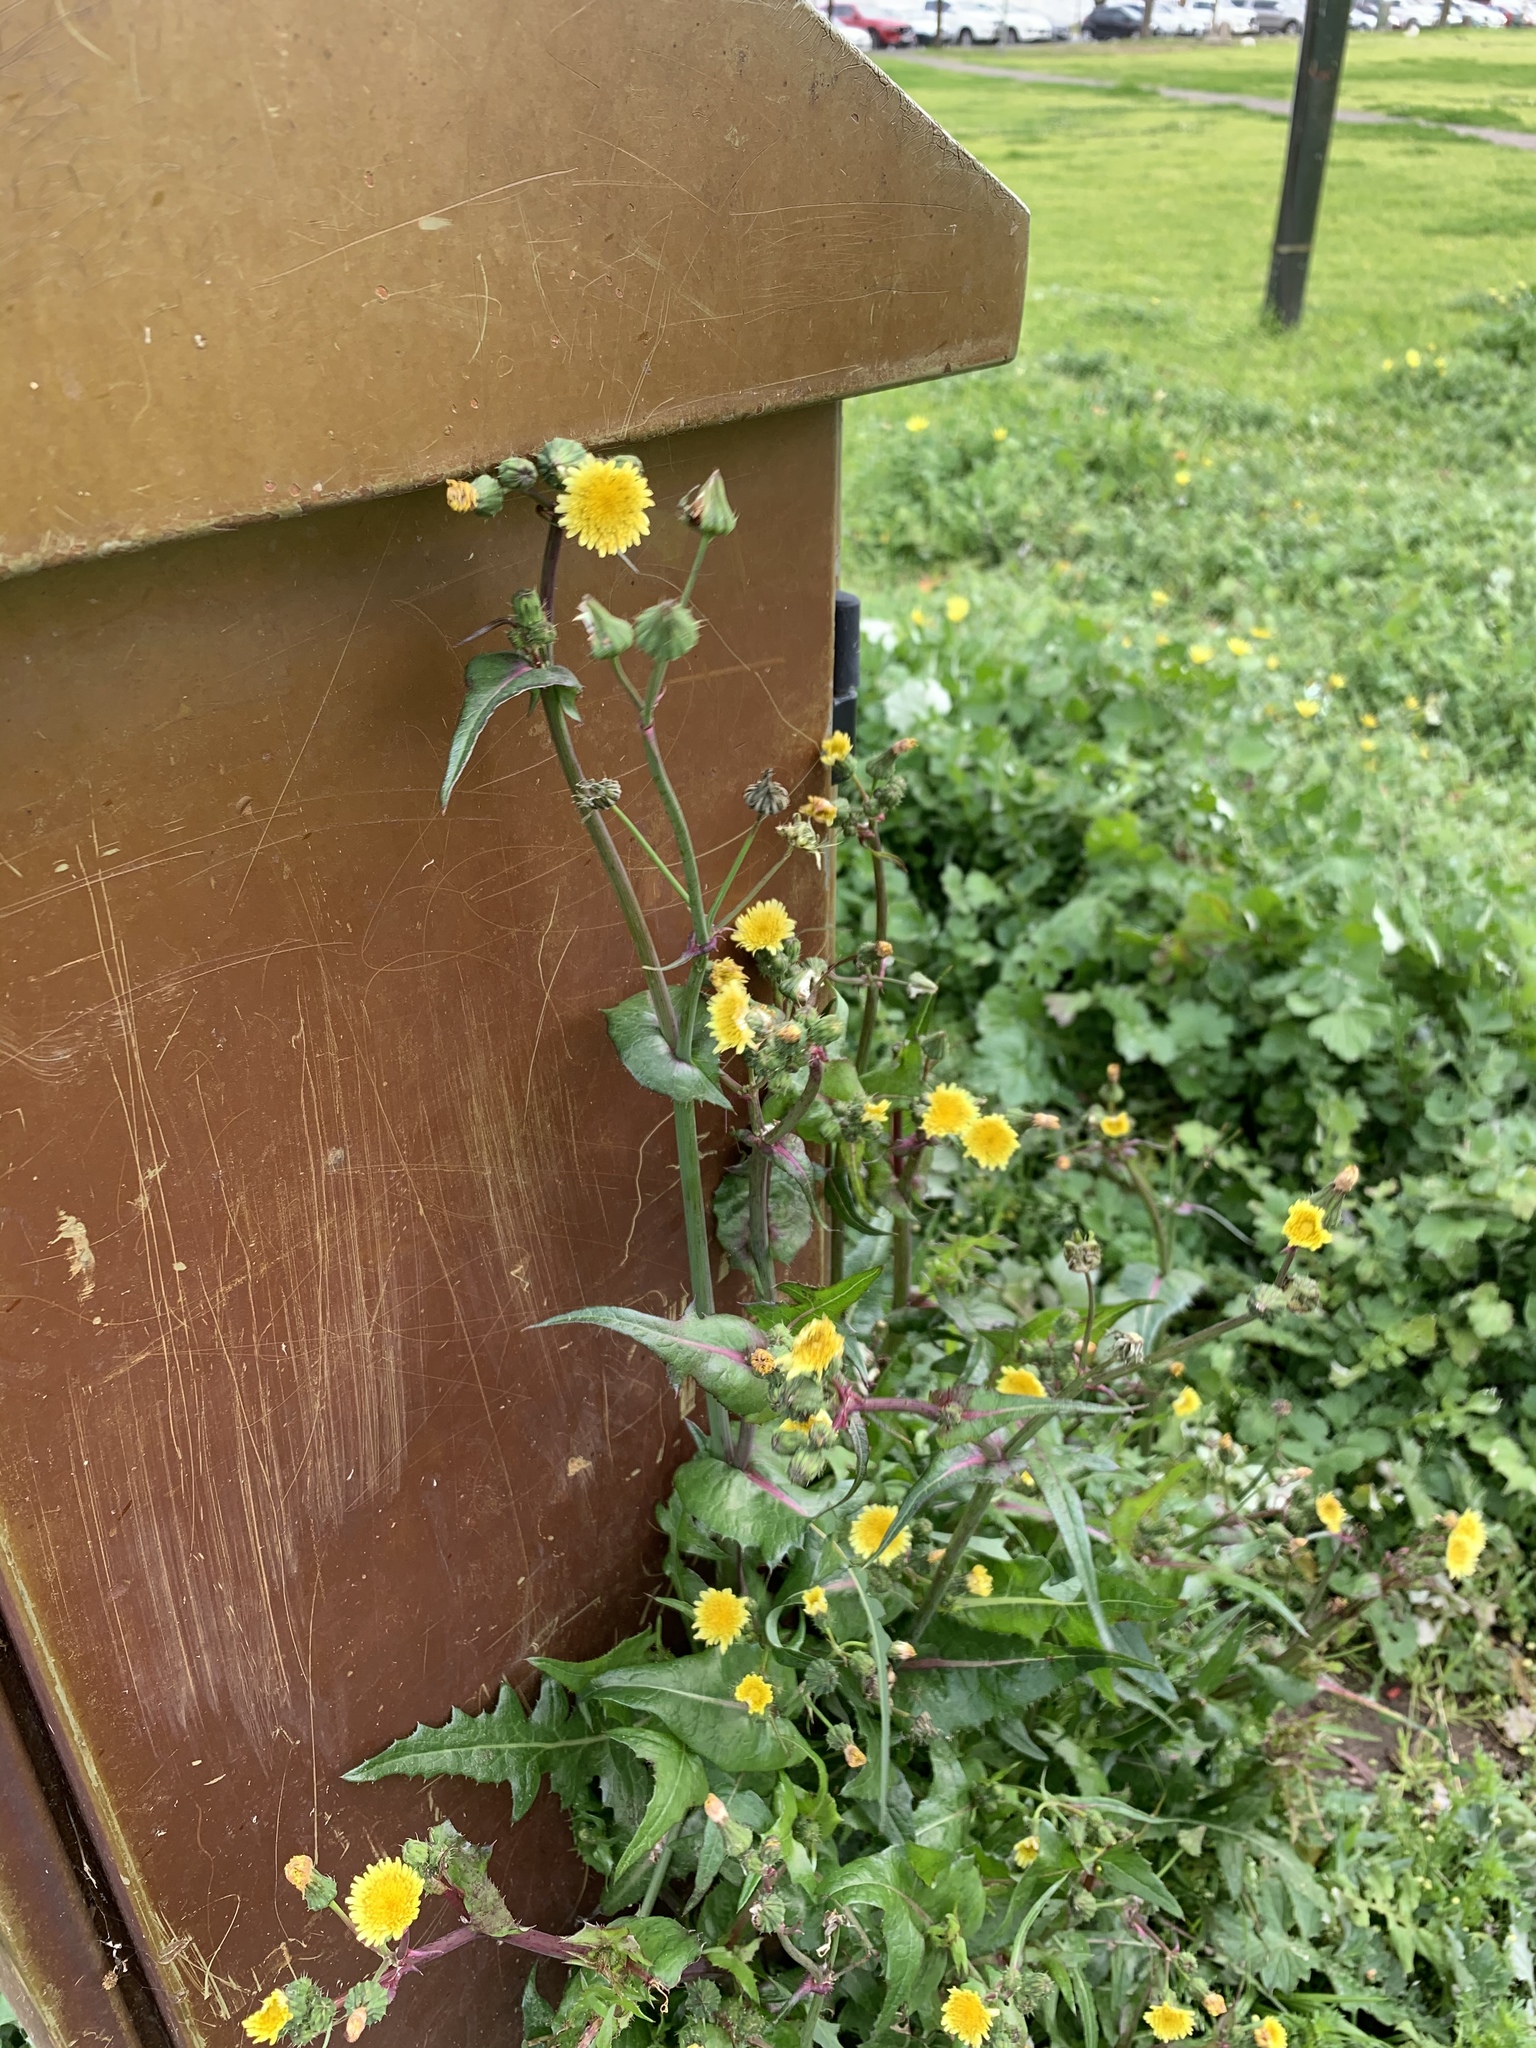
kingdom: Plantae
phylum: Tracheophyta
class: Magnoliopsida
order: Asterales
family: Asteraceae
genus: Sonchus
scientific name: Sonchus oleraceus
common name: Common sowthistle
